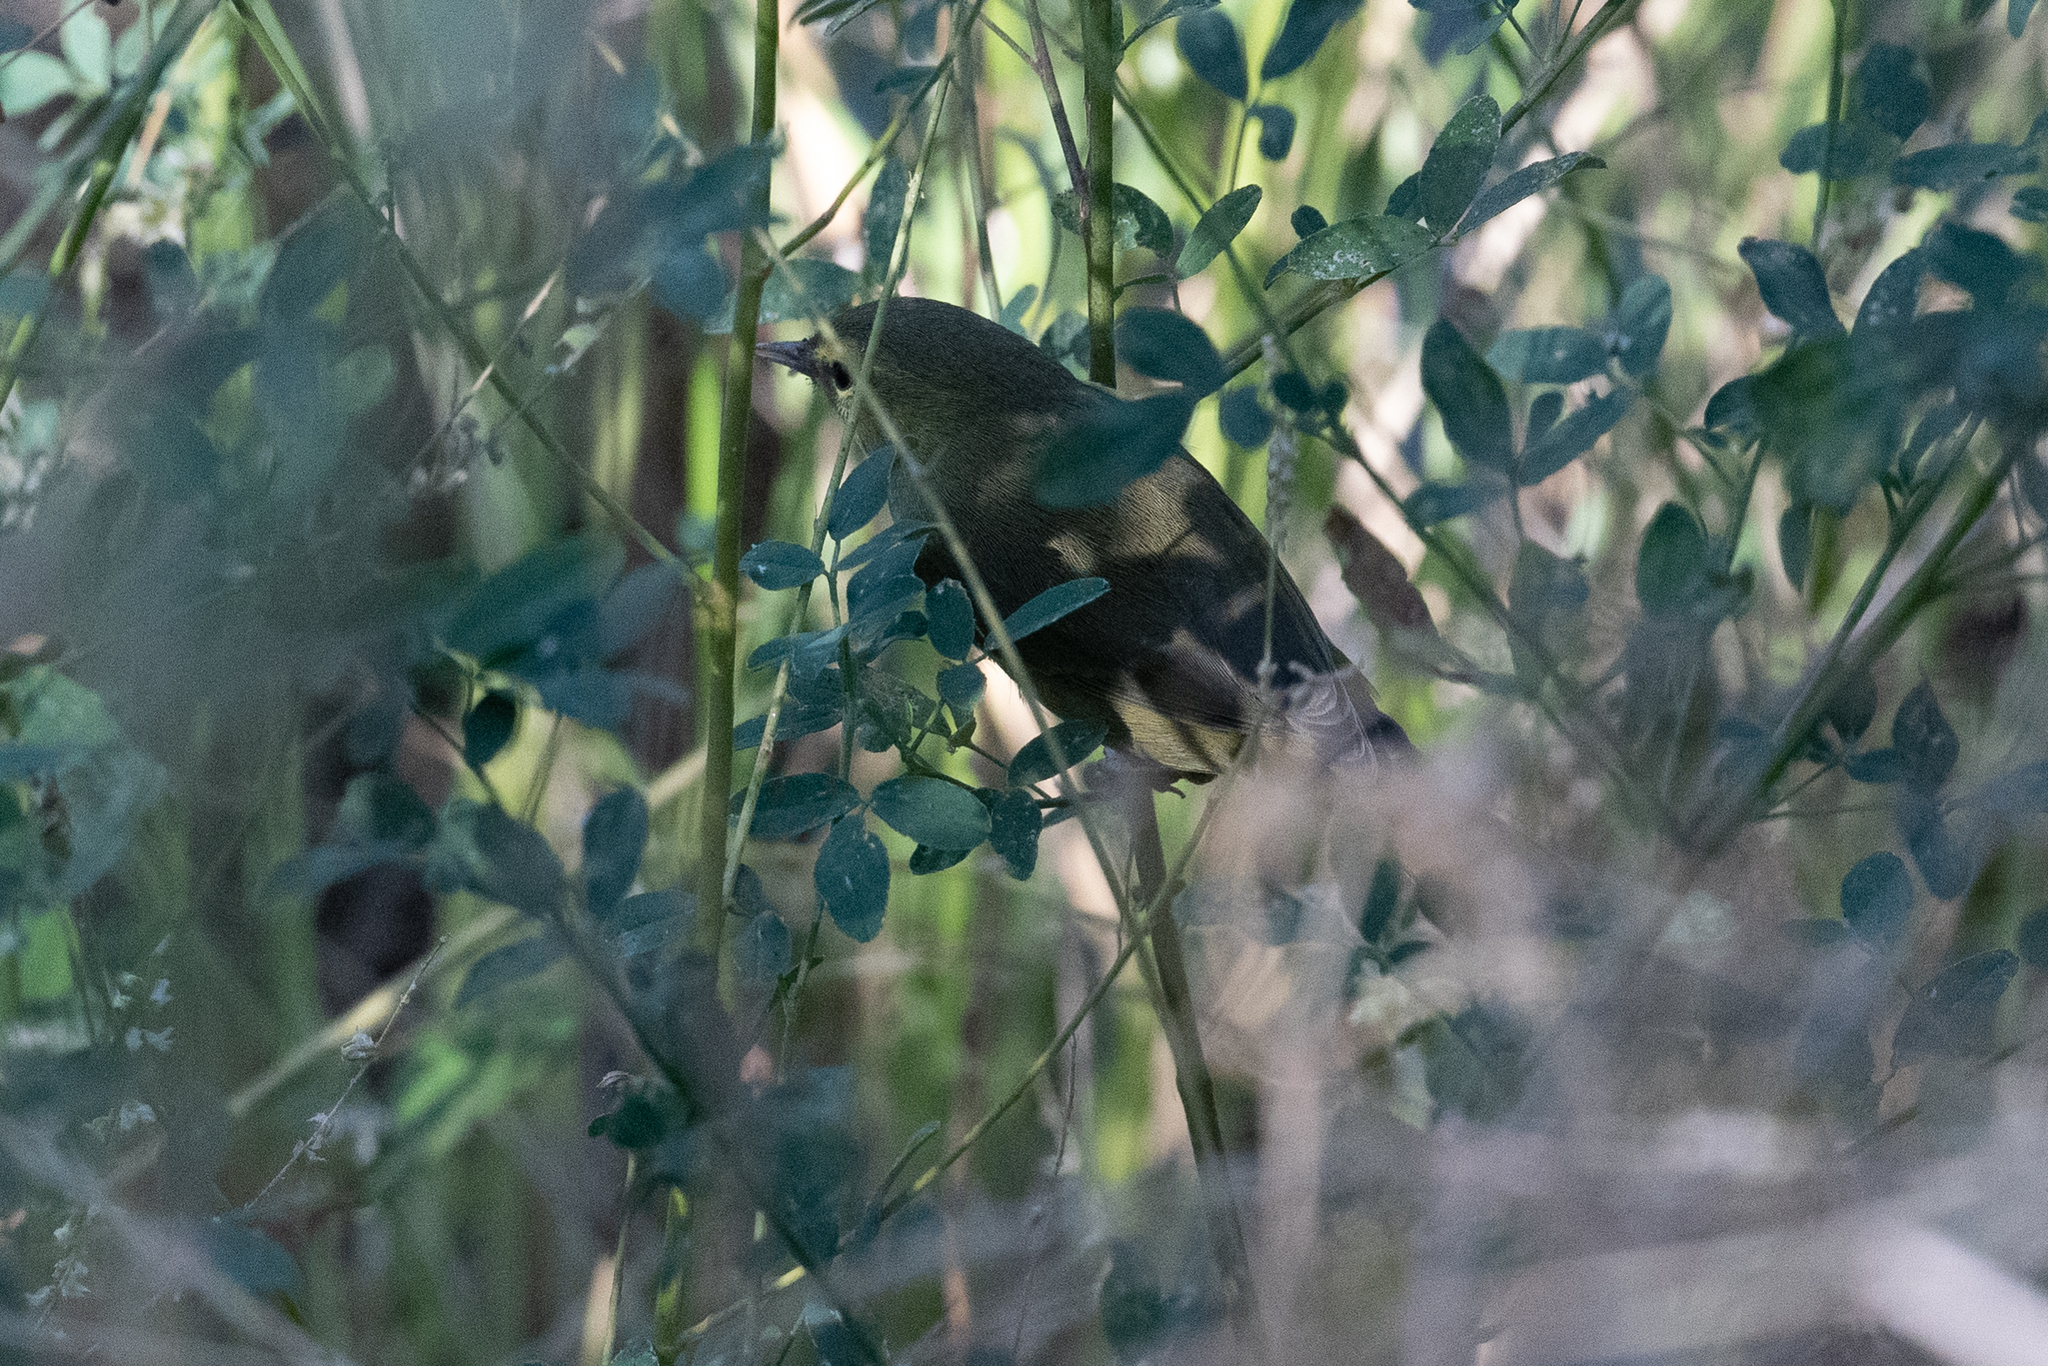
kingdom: Animalia
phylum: Chordata
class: Aves
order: Passeriformes
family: Parulidae
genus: Leiothlypis
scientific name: Leiothlypis celata
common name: Orange-crowned warbler
